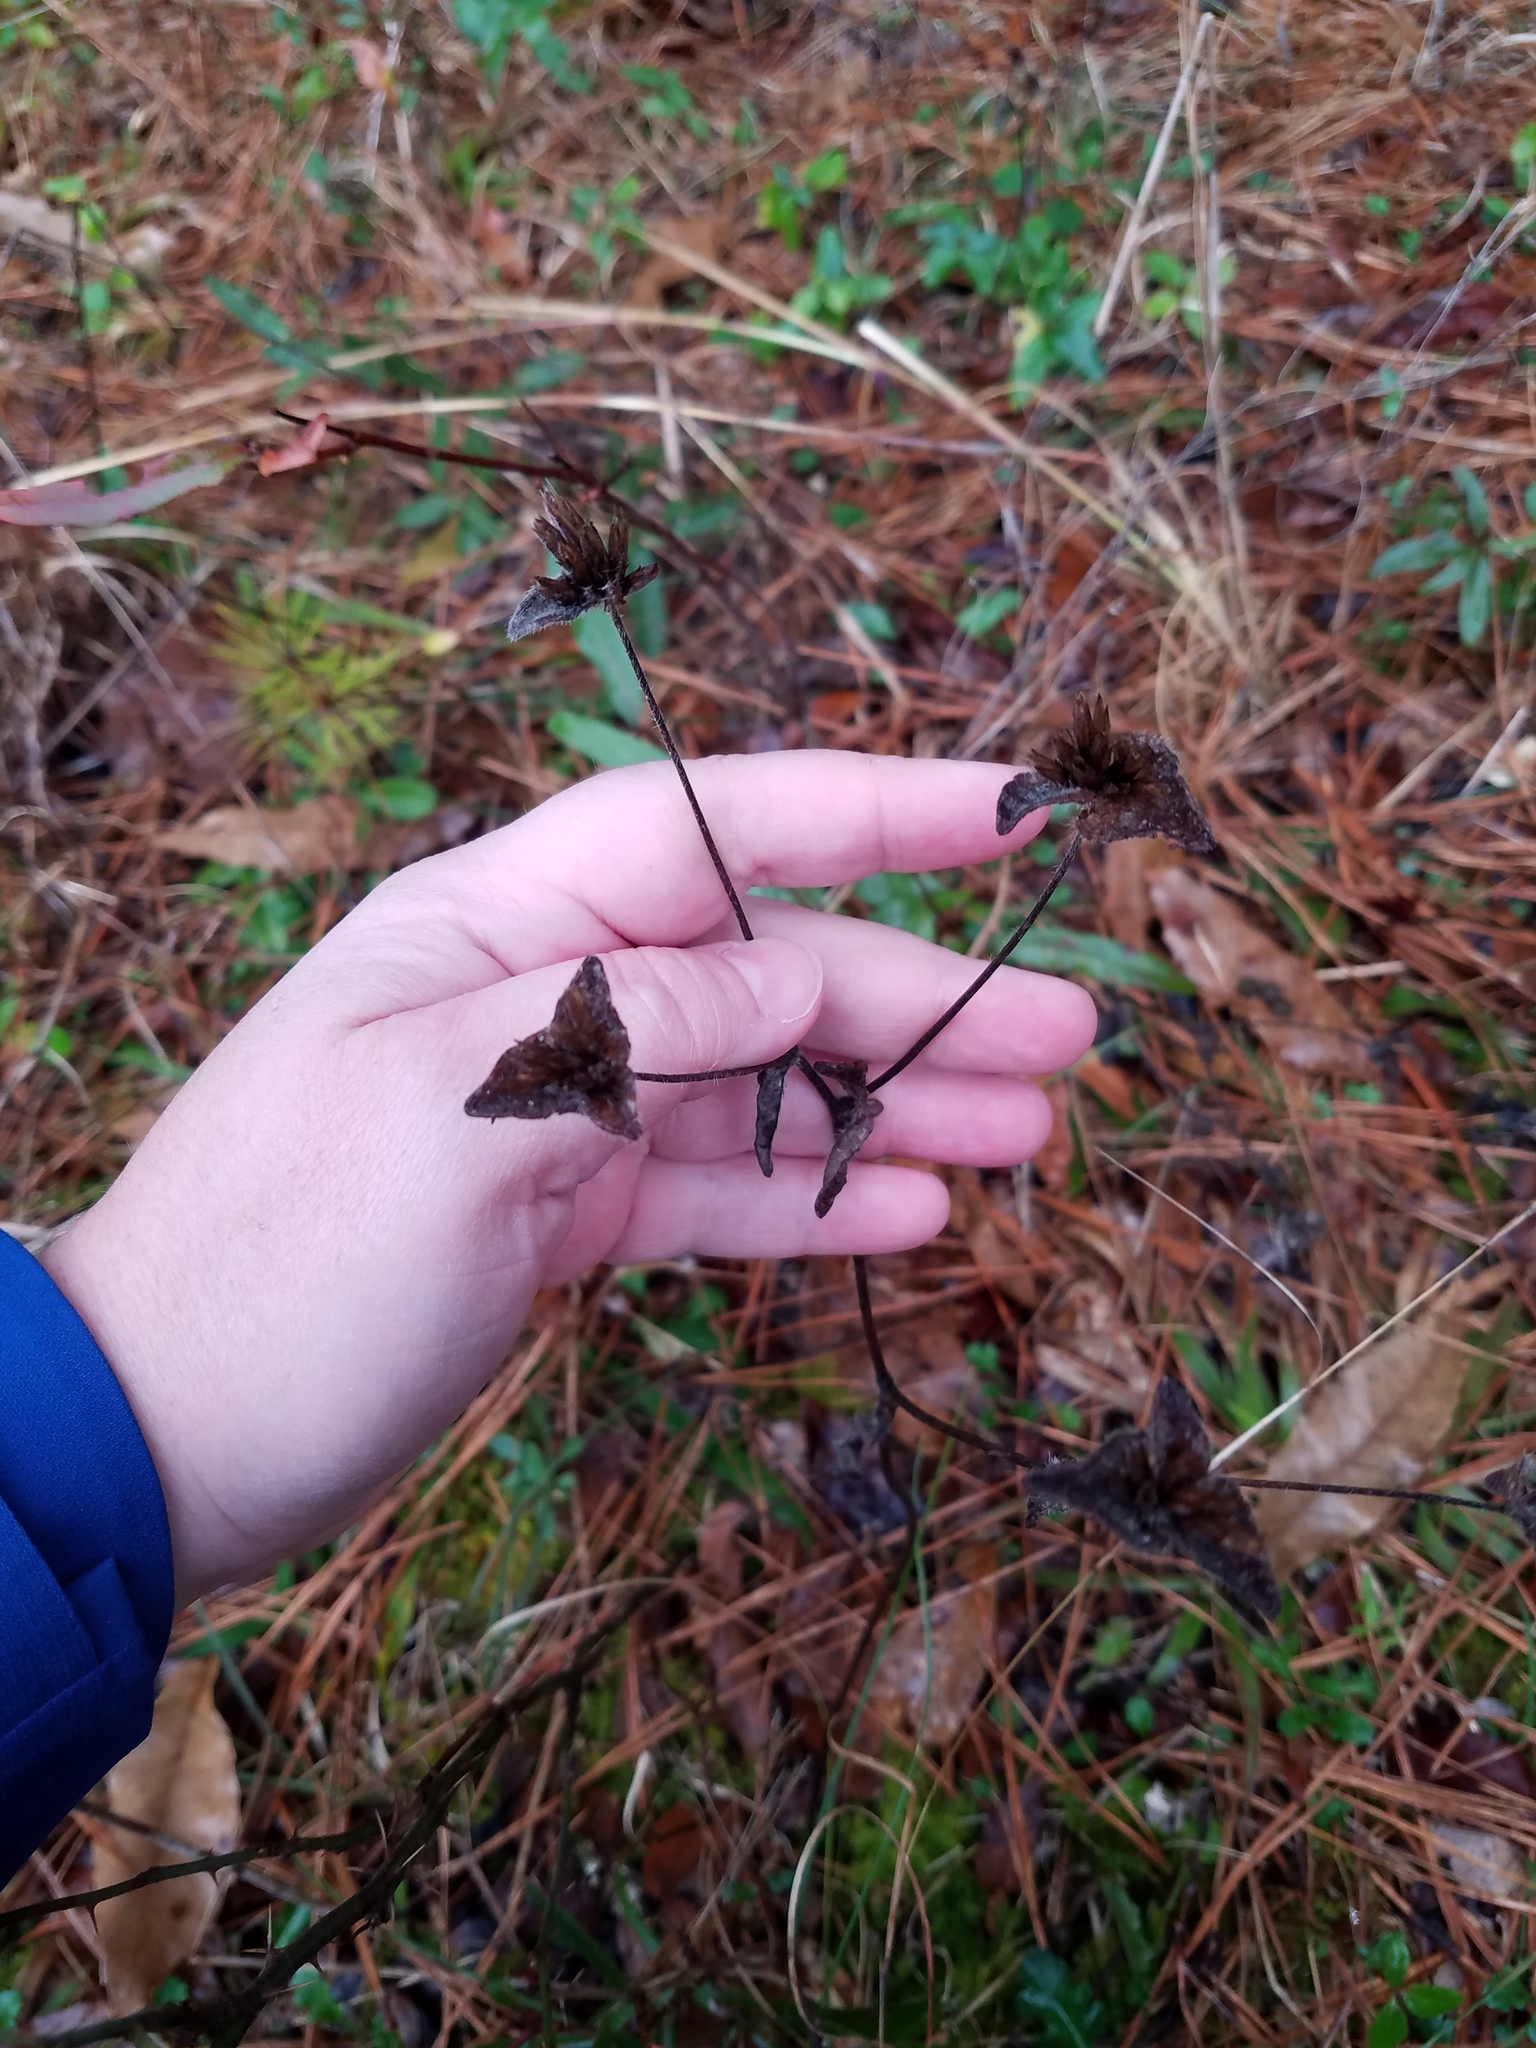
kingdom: Plantae
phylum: Tracheophyta
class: Magnoliopsida
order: Asterales
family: Asteraceae
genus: Elephantopus
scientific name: Elephantopus tomentosus
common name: Tobacco-weed
